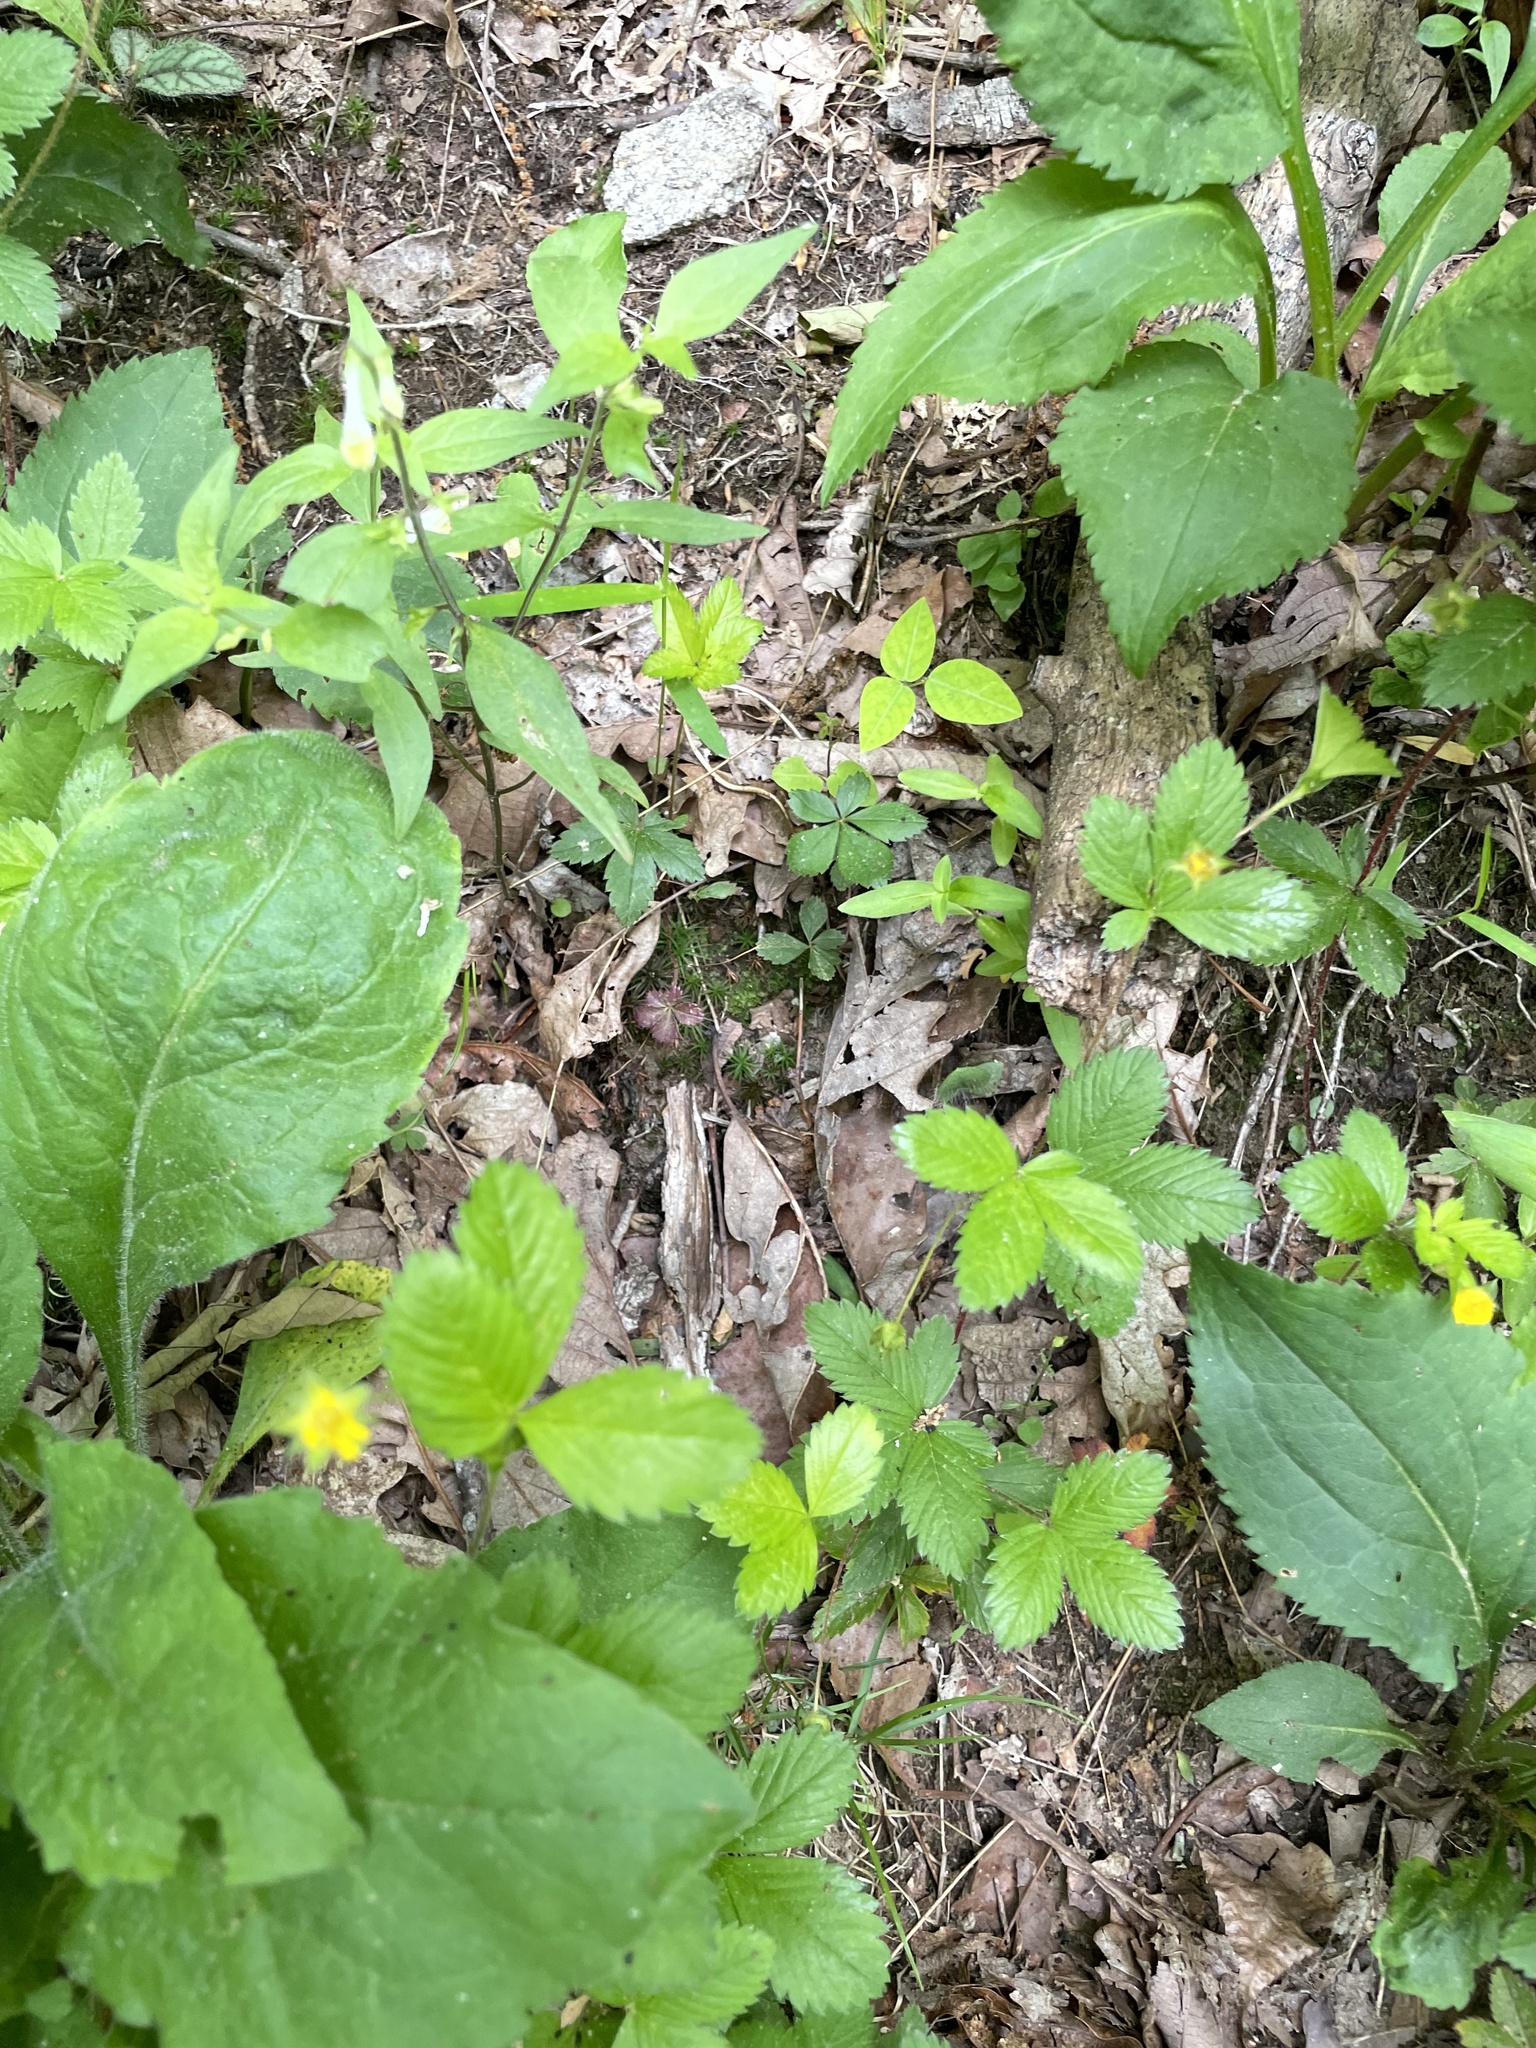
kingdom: Plantae
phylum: Tracheophyta
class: Magnoliopsida
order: Rosales
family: Rosaceae
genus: Potentilla
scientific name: Potentilla simplex
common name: Old field cinquefoil
